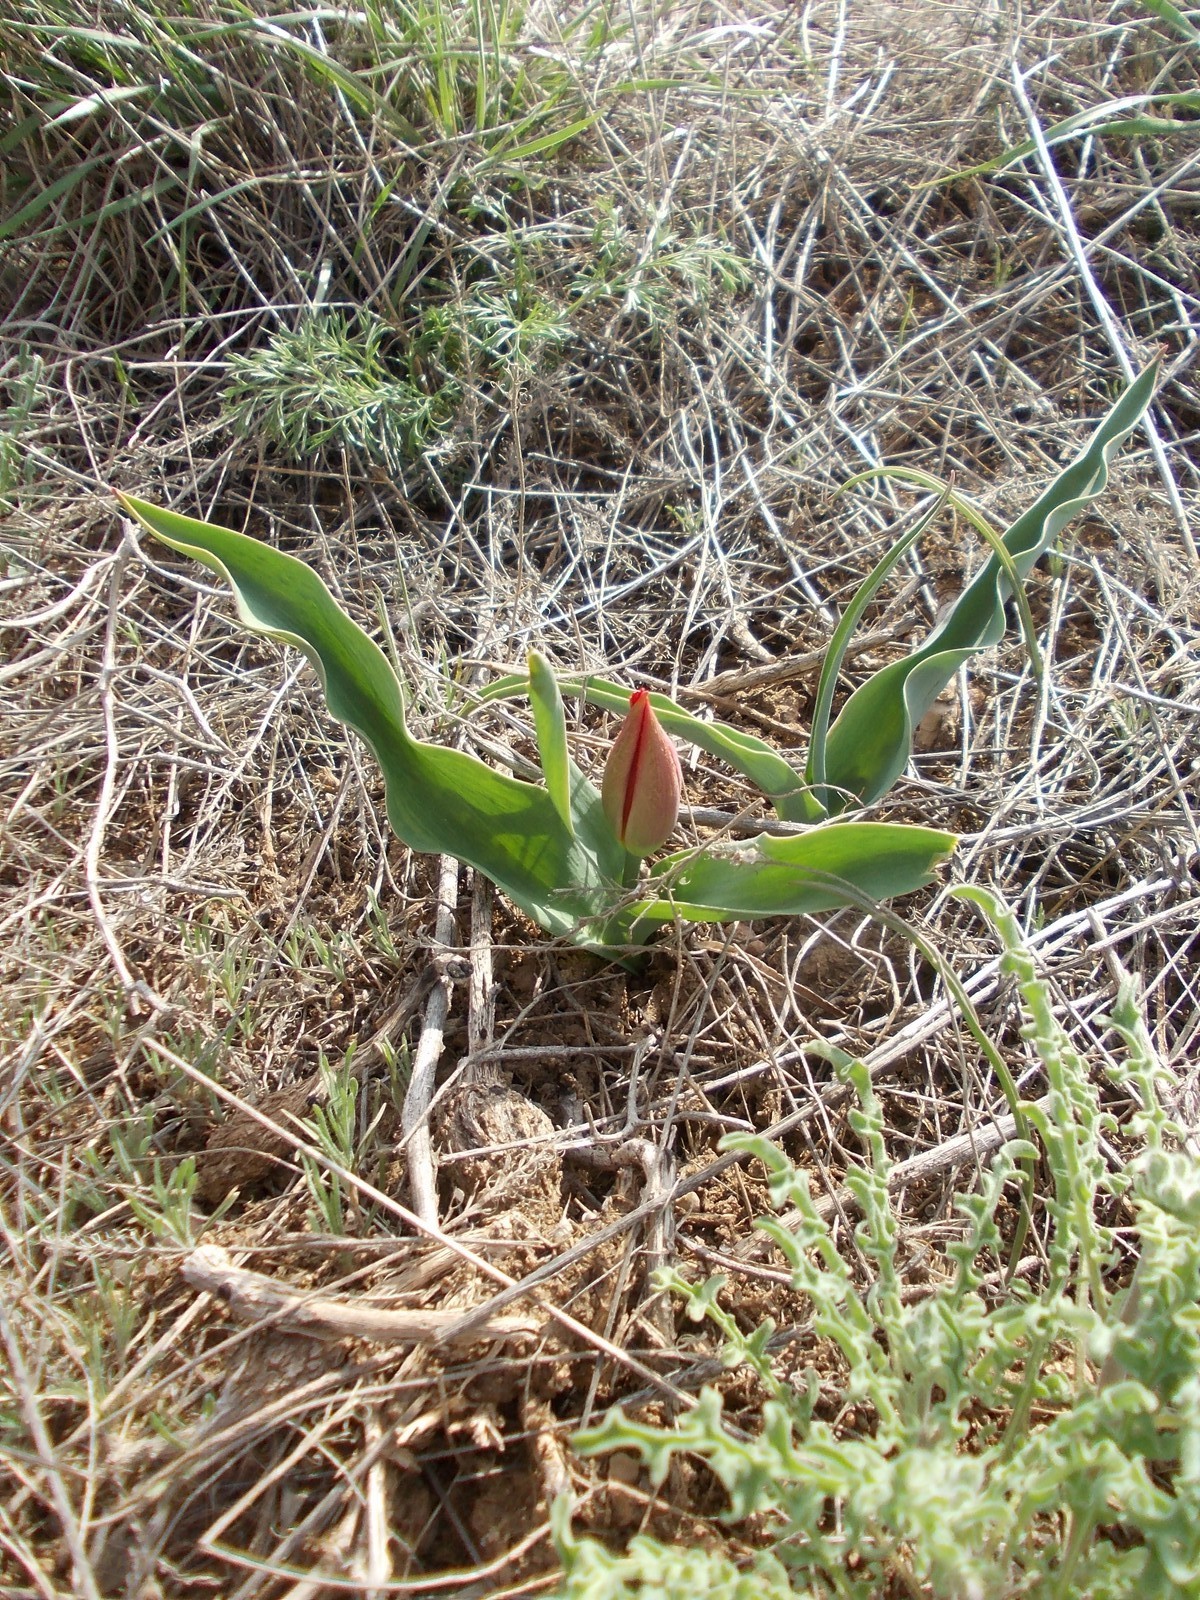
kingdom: Plantae
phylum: Tracheophyta
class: Liliopsida
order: Liliales
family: Liliaceae
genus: Tulipa
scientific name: Tulipa suaveolens
